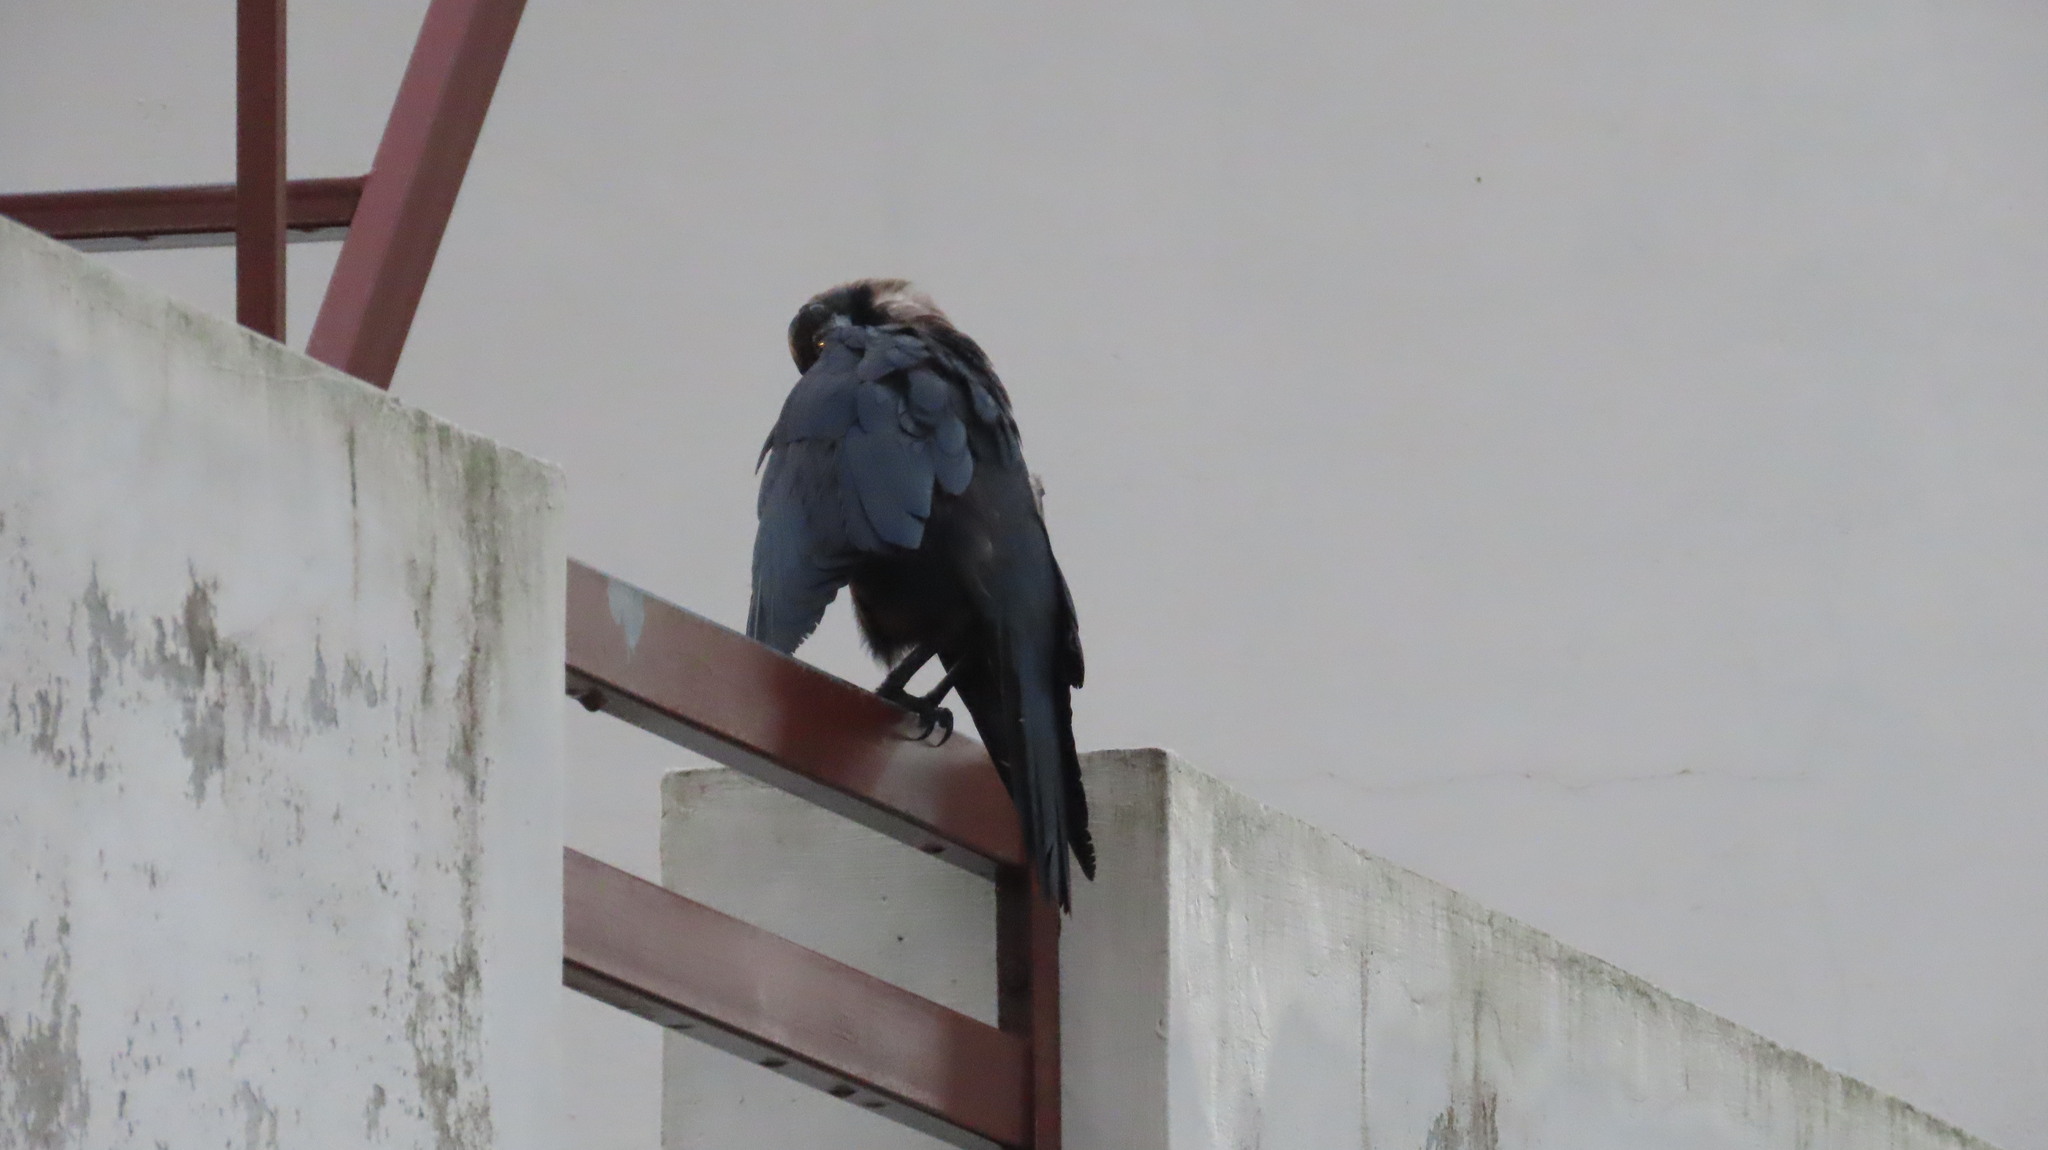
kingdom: Animalia
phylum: Chordata
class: Aves
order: Passeriformes
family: Corvidae
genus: Corvus
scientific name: Corvus splendens
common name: House crow
